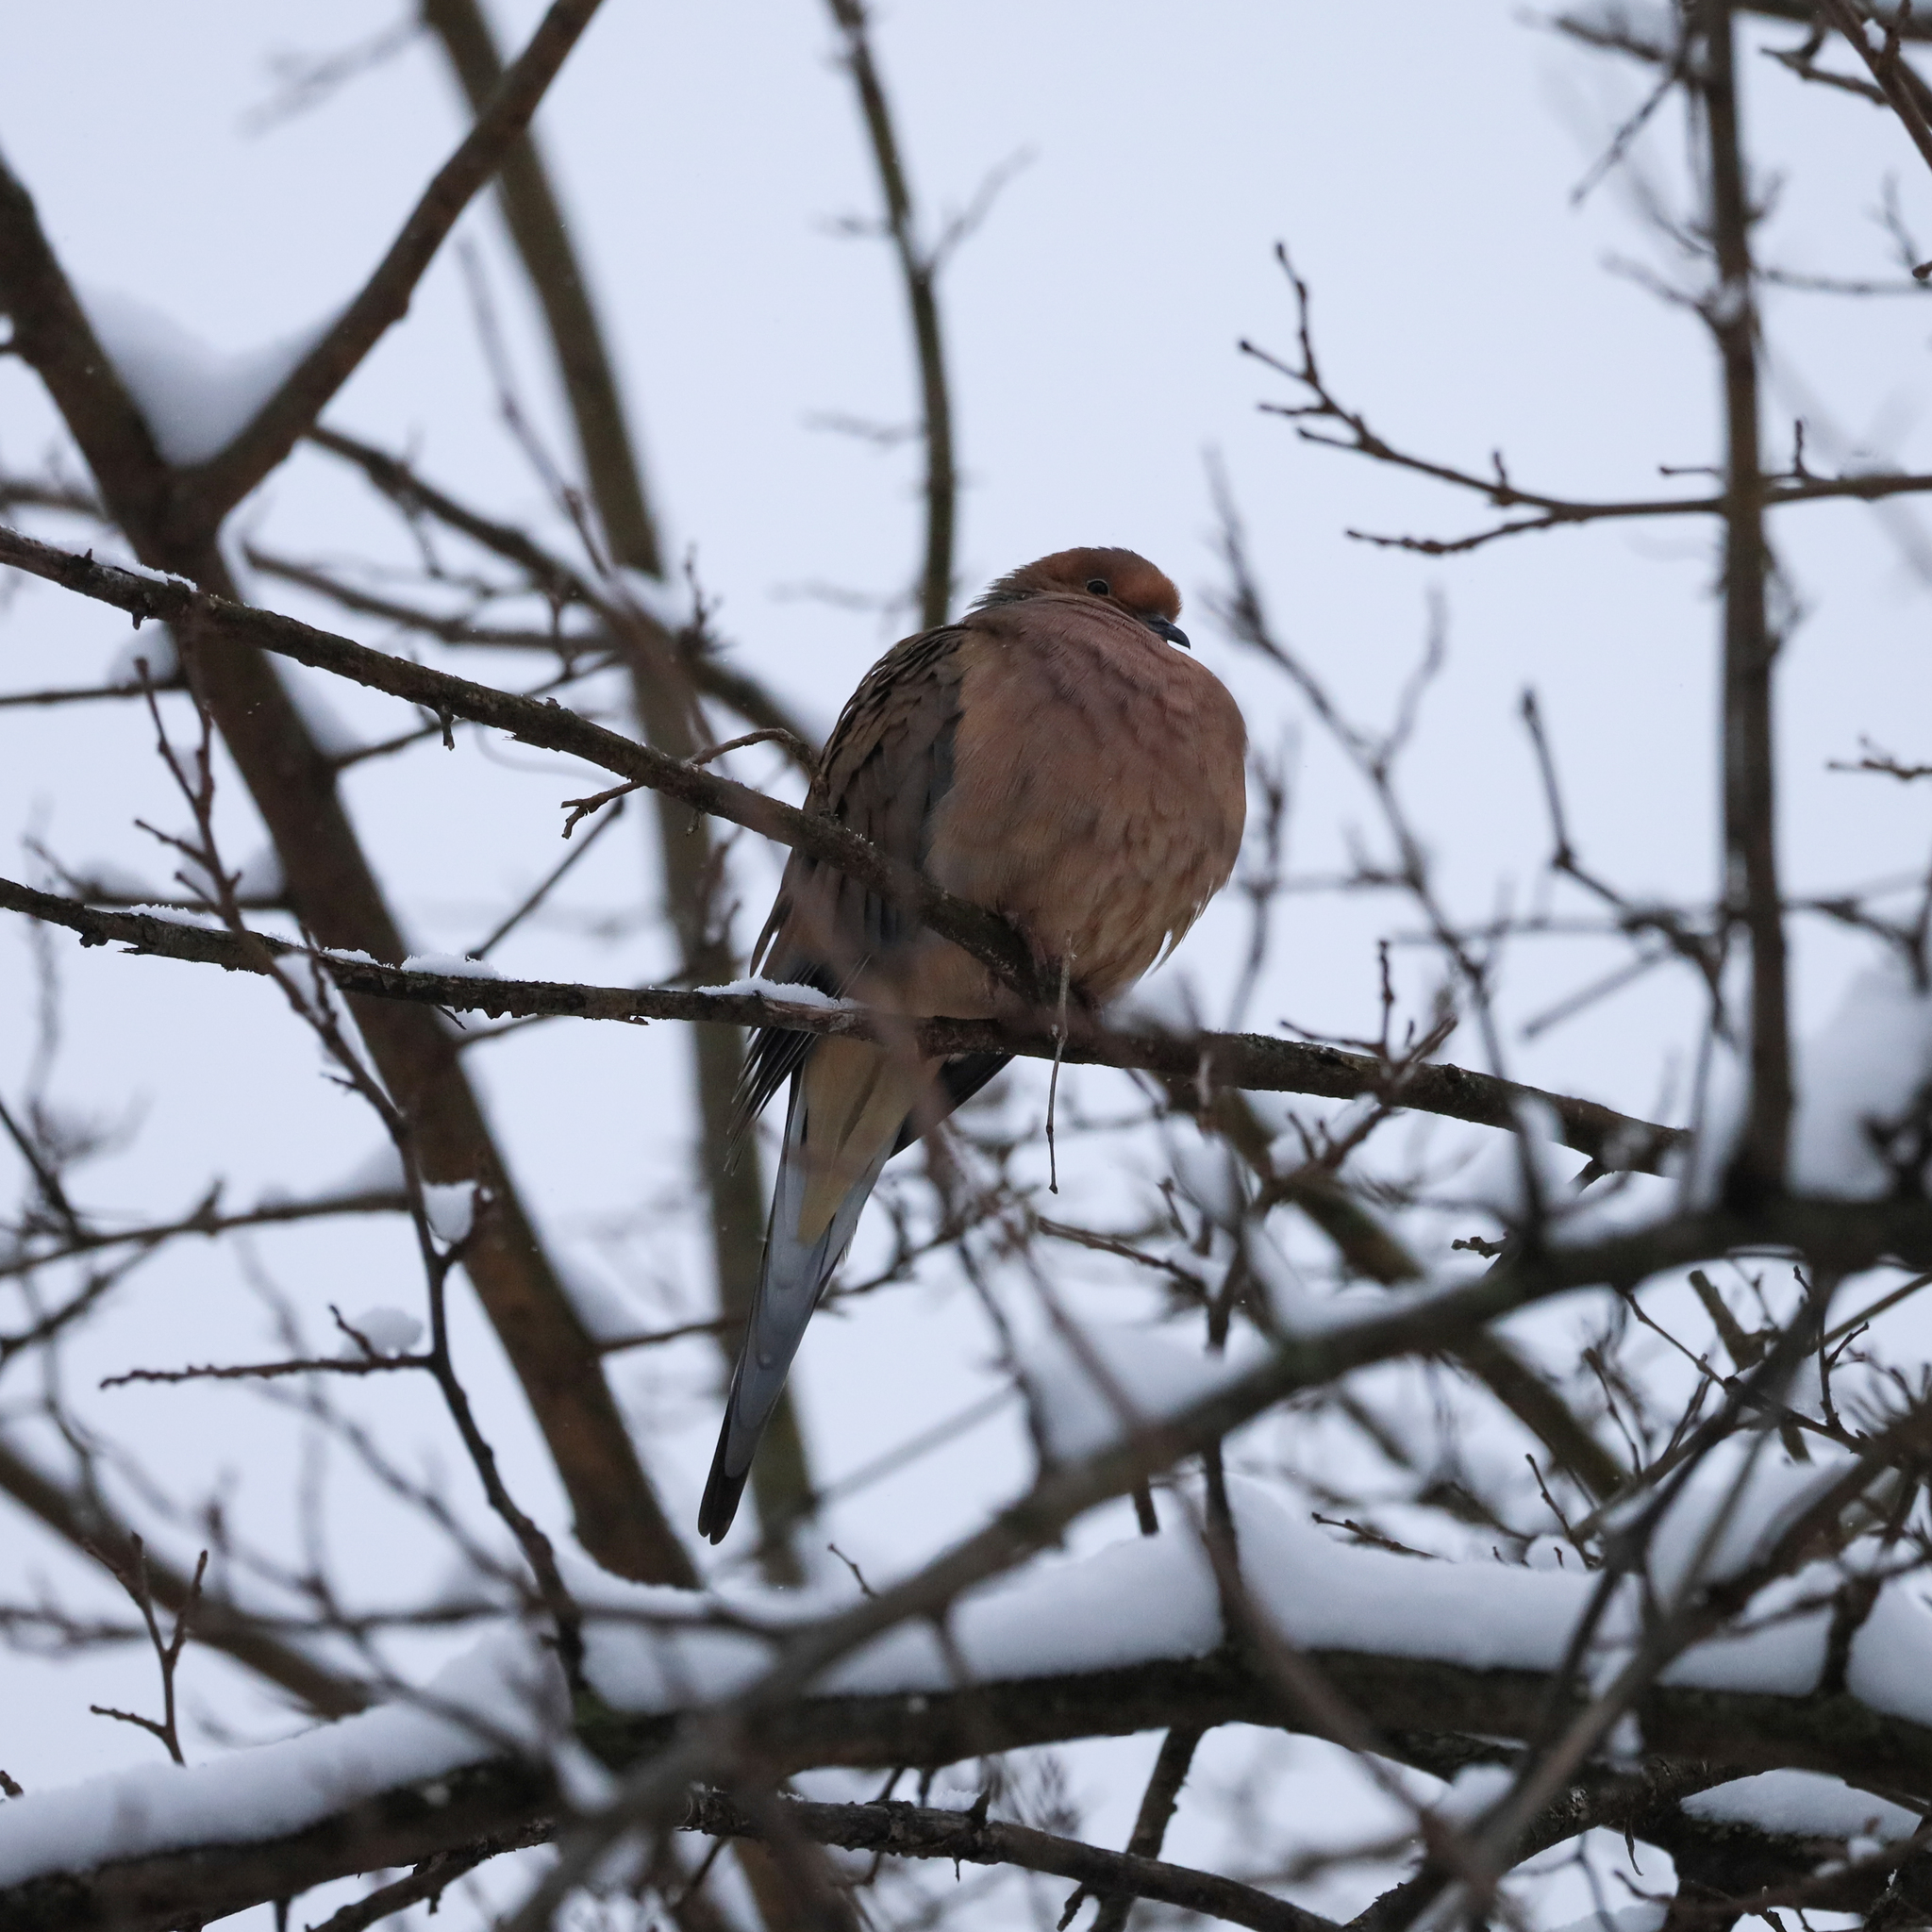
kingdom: Animalia
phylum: Chordata
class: Aves
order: Columbiformes
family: Columbidae
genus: Zenaida
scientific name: Zenaida macroura
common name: Mourning dove
